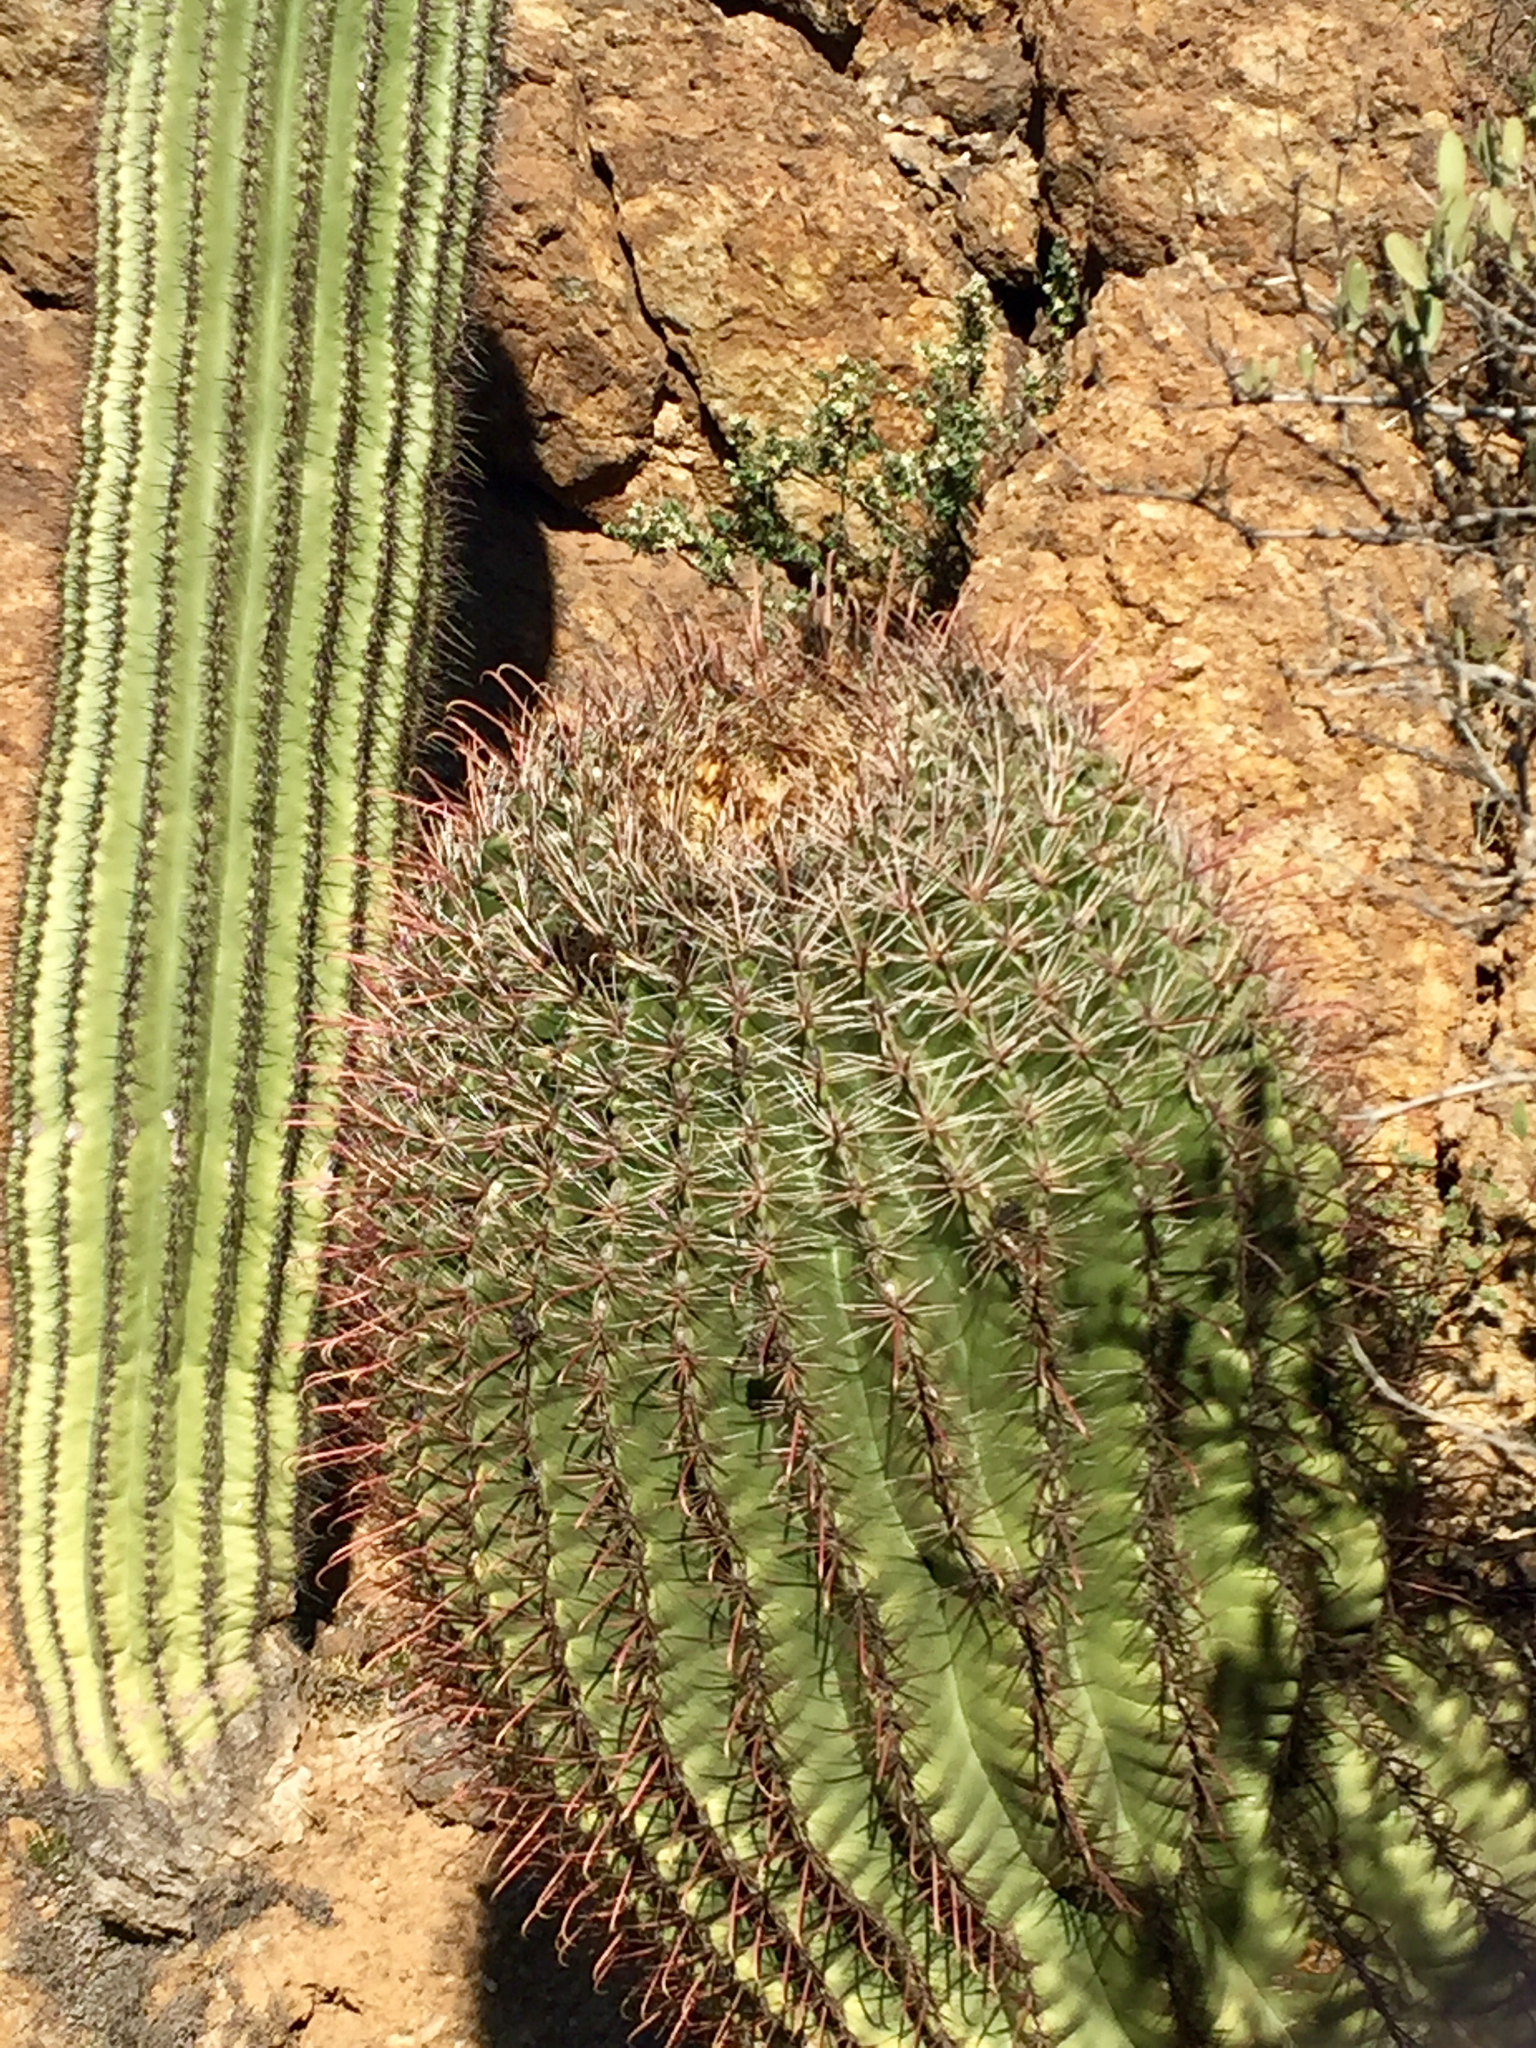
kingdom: Plantae
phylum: Tracheophyta
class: Magnoliopsida
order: Caryophyllales
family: Cactaceae
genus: Ferocactus
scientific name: Ferocactus wislizeni
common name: Candy barrel cactus
